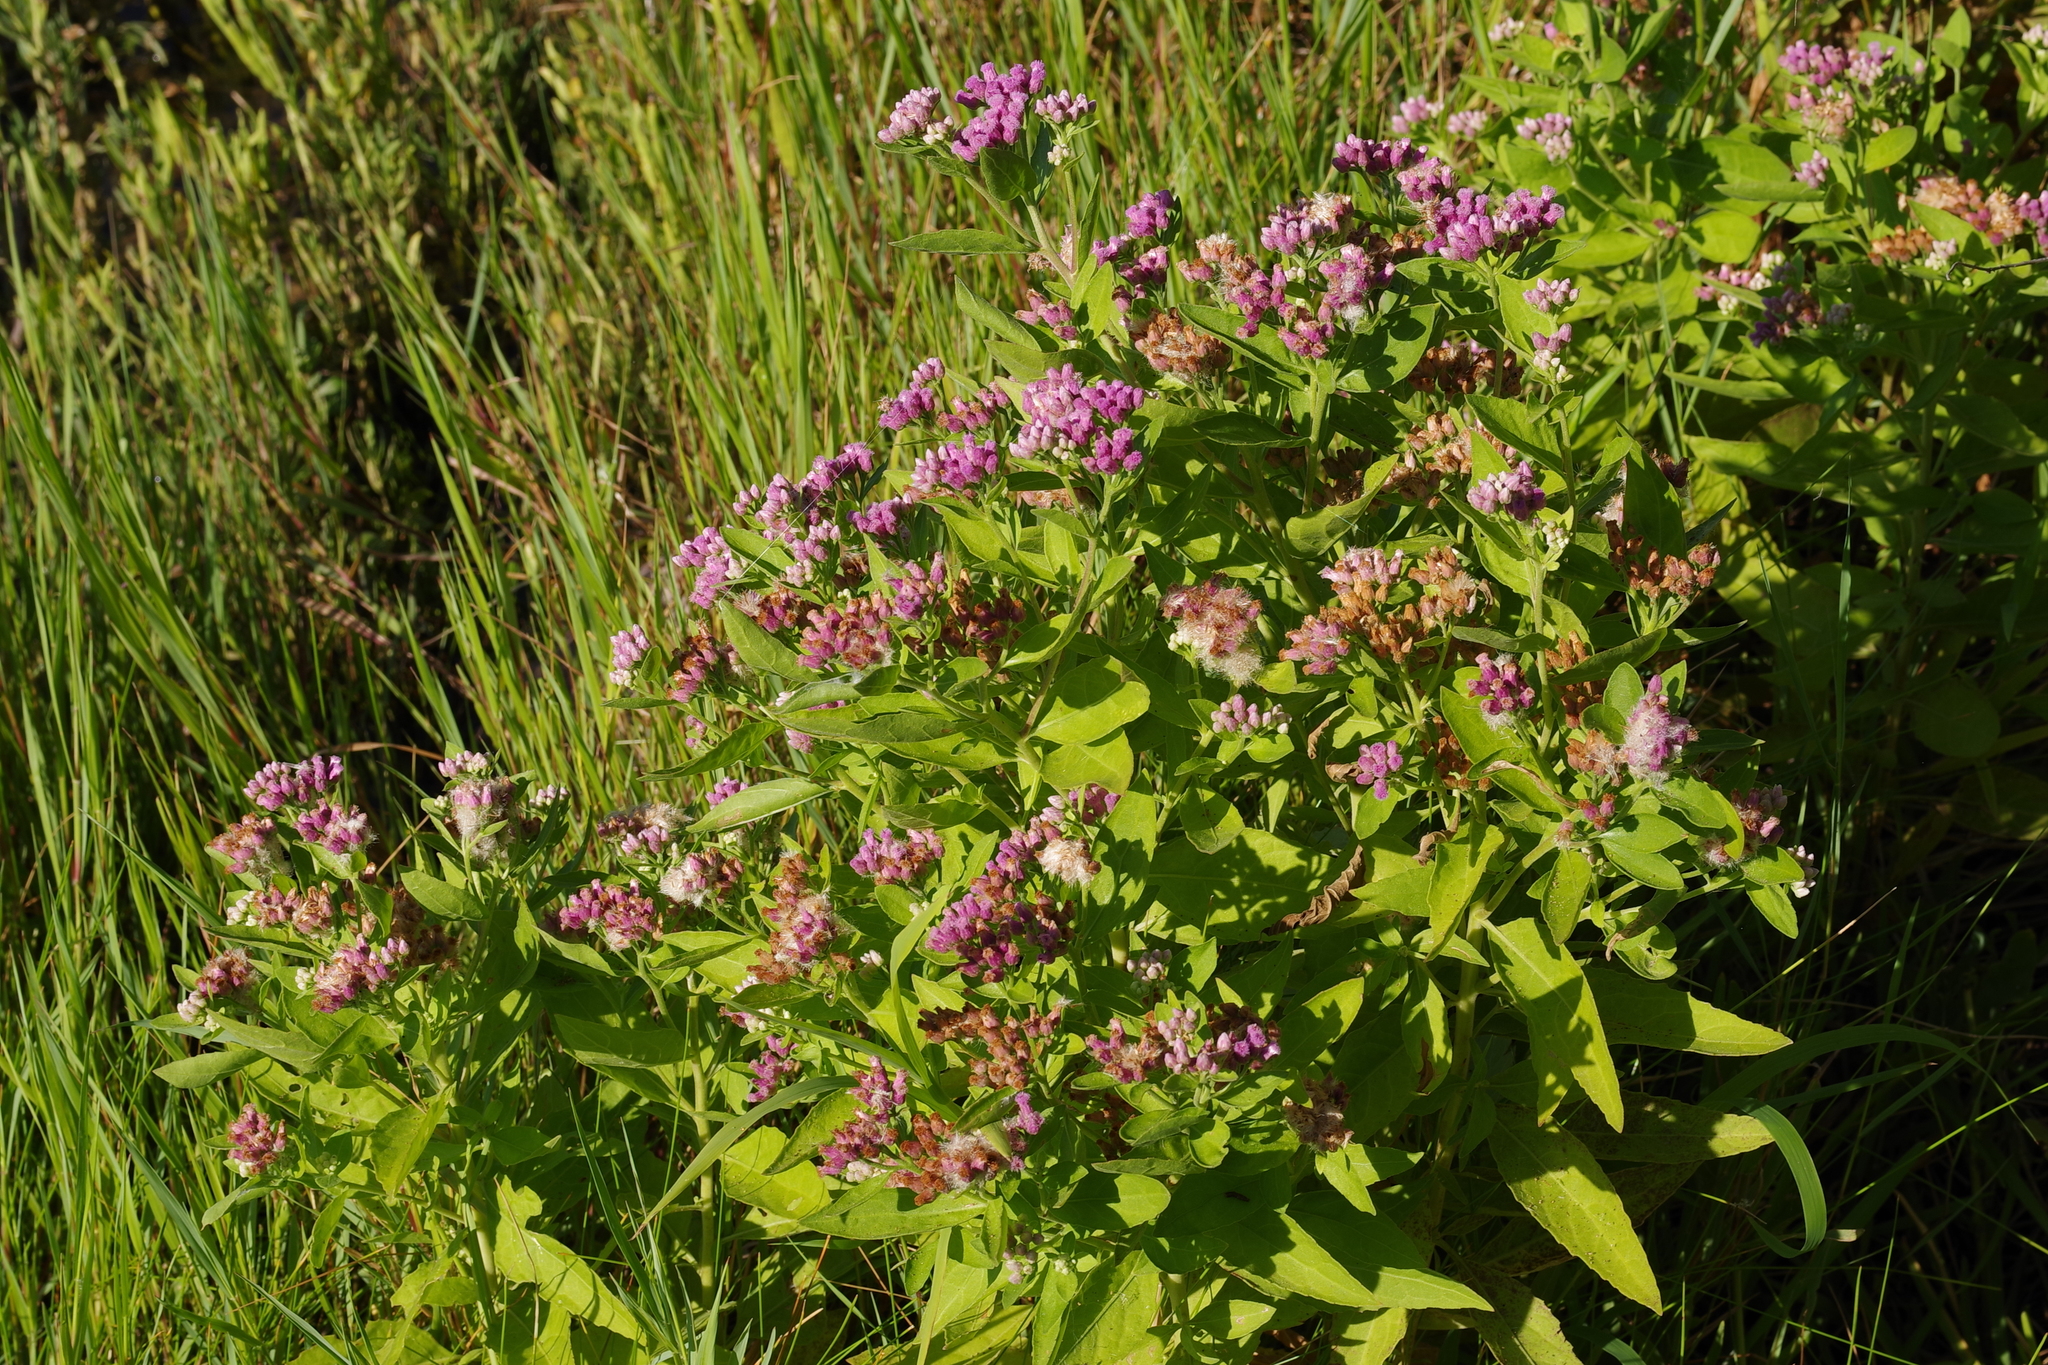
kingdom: Plantae
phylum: Tracheophyta
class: Magnoliopsida
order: Asterales
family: Asteraceae
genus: Pluchea
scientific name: Pluchea odorata
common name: Saltmarsh fleabane
